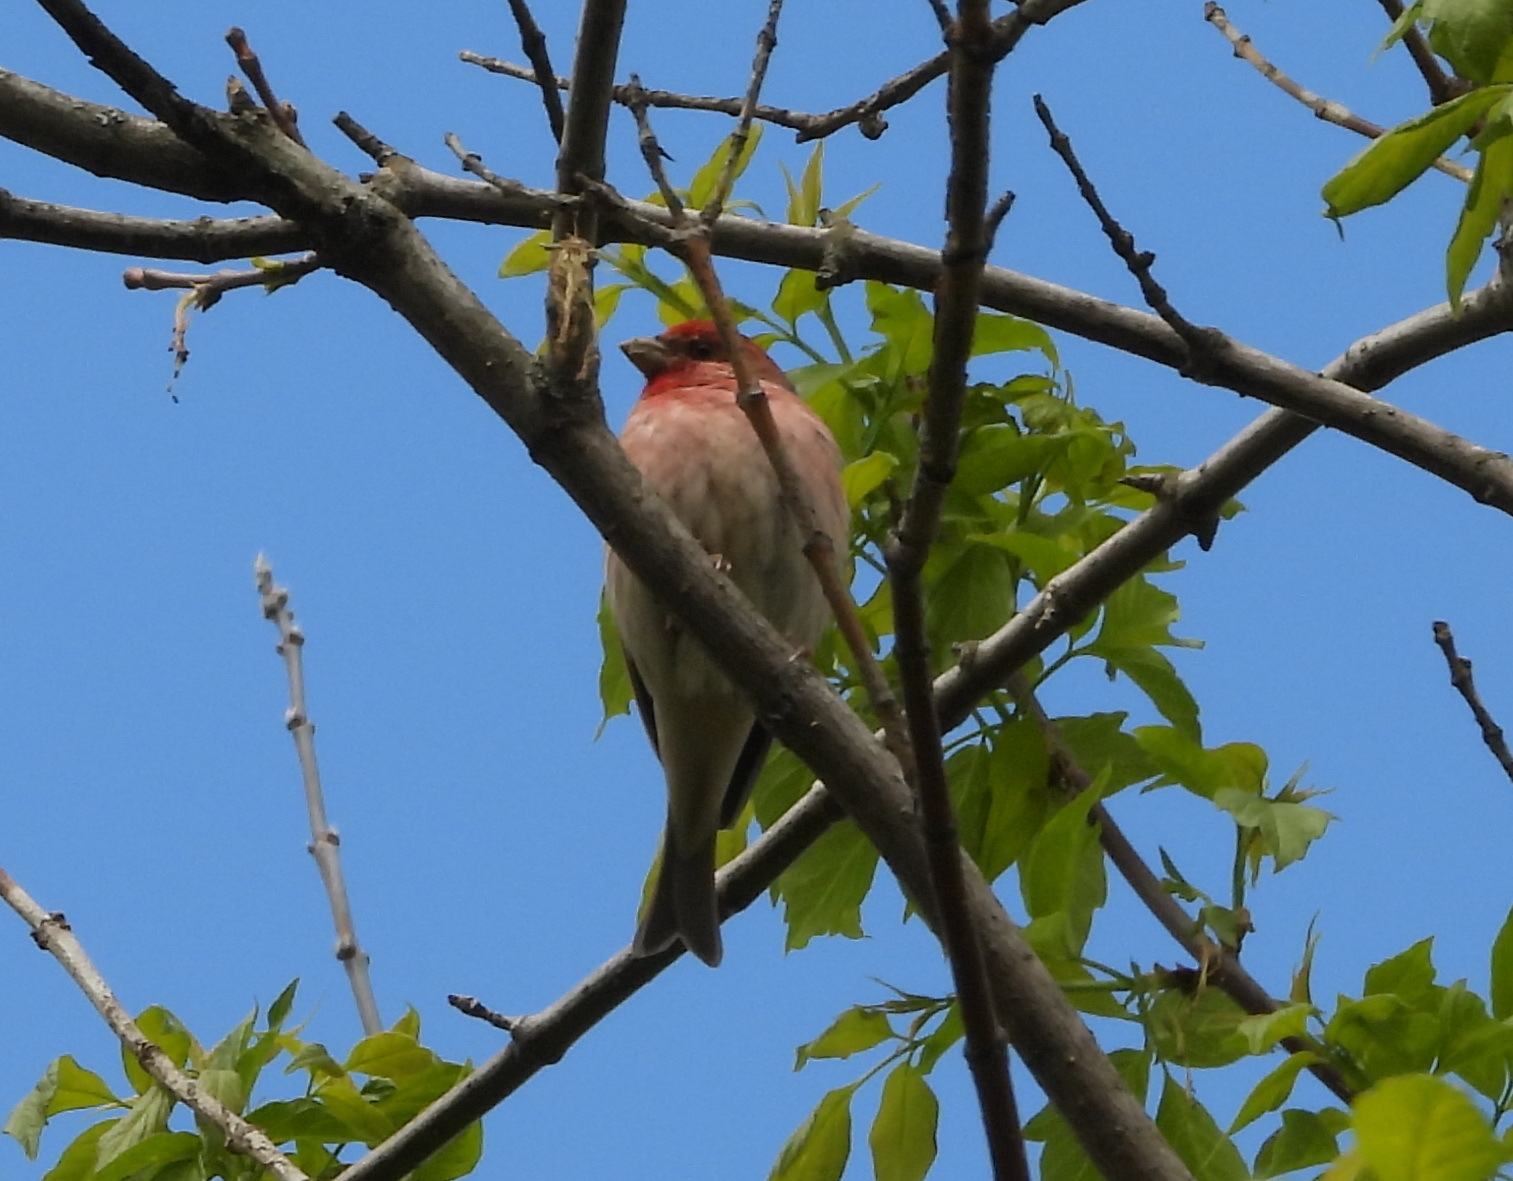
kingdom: Animalia
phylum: Chordata
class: Aves
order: Passeriformes
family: Fringillidae
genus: Carpodacus
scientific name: Carpodacus erythrinus
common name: Common rosefinch
